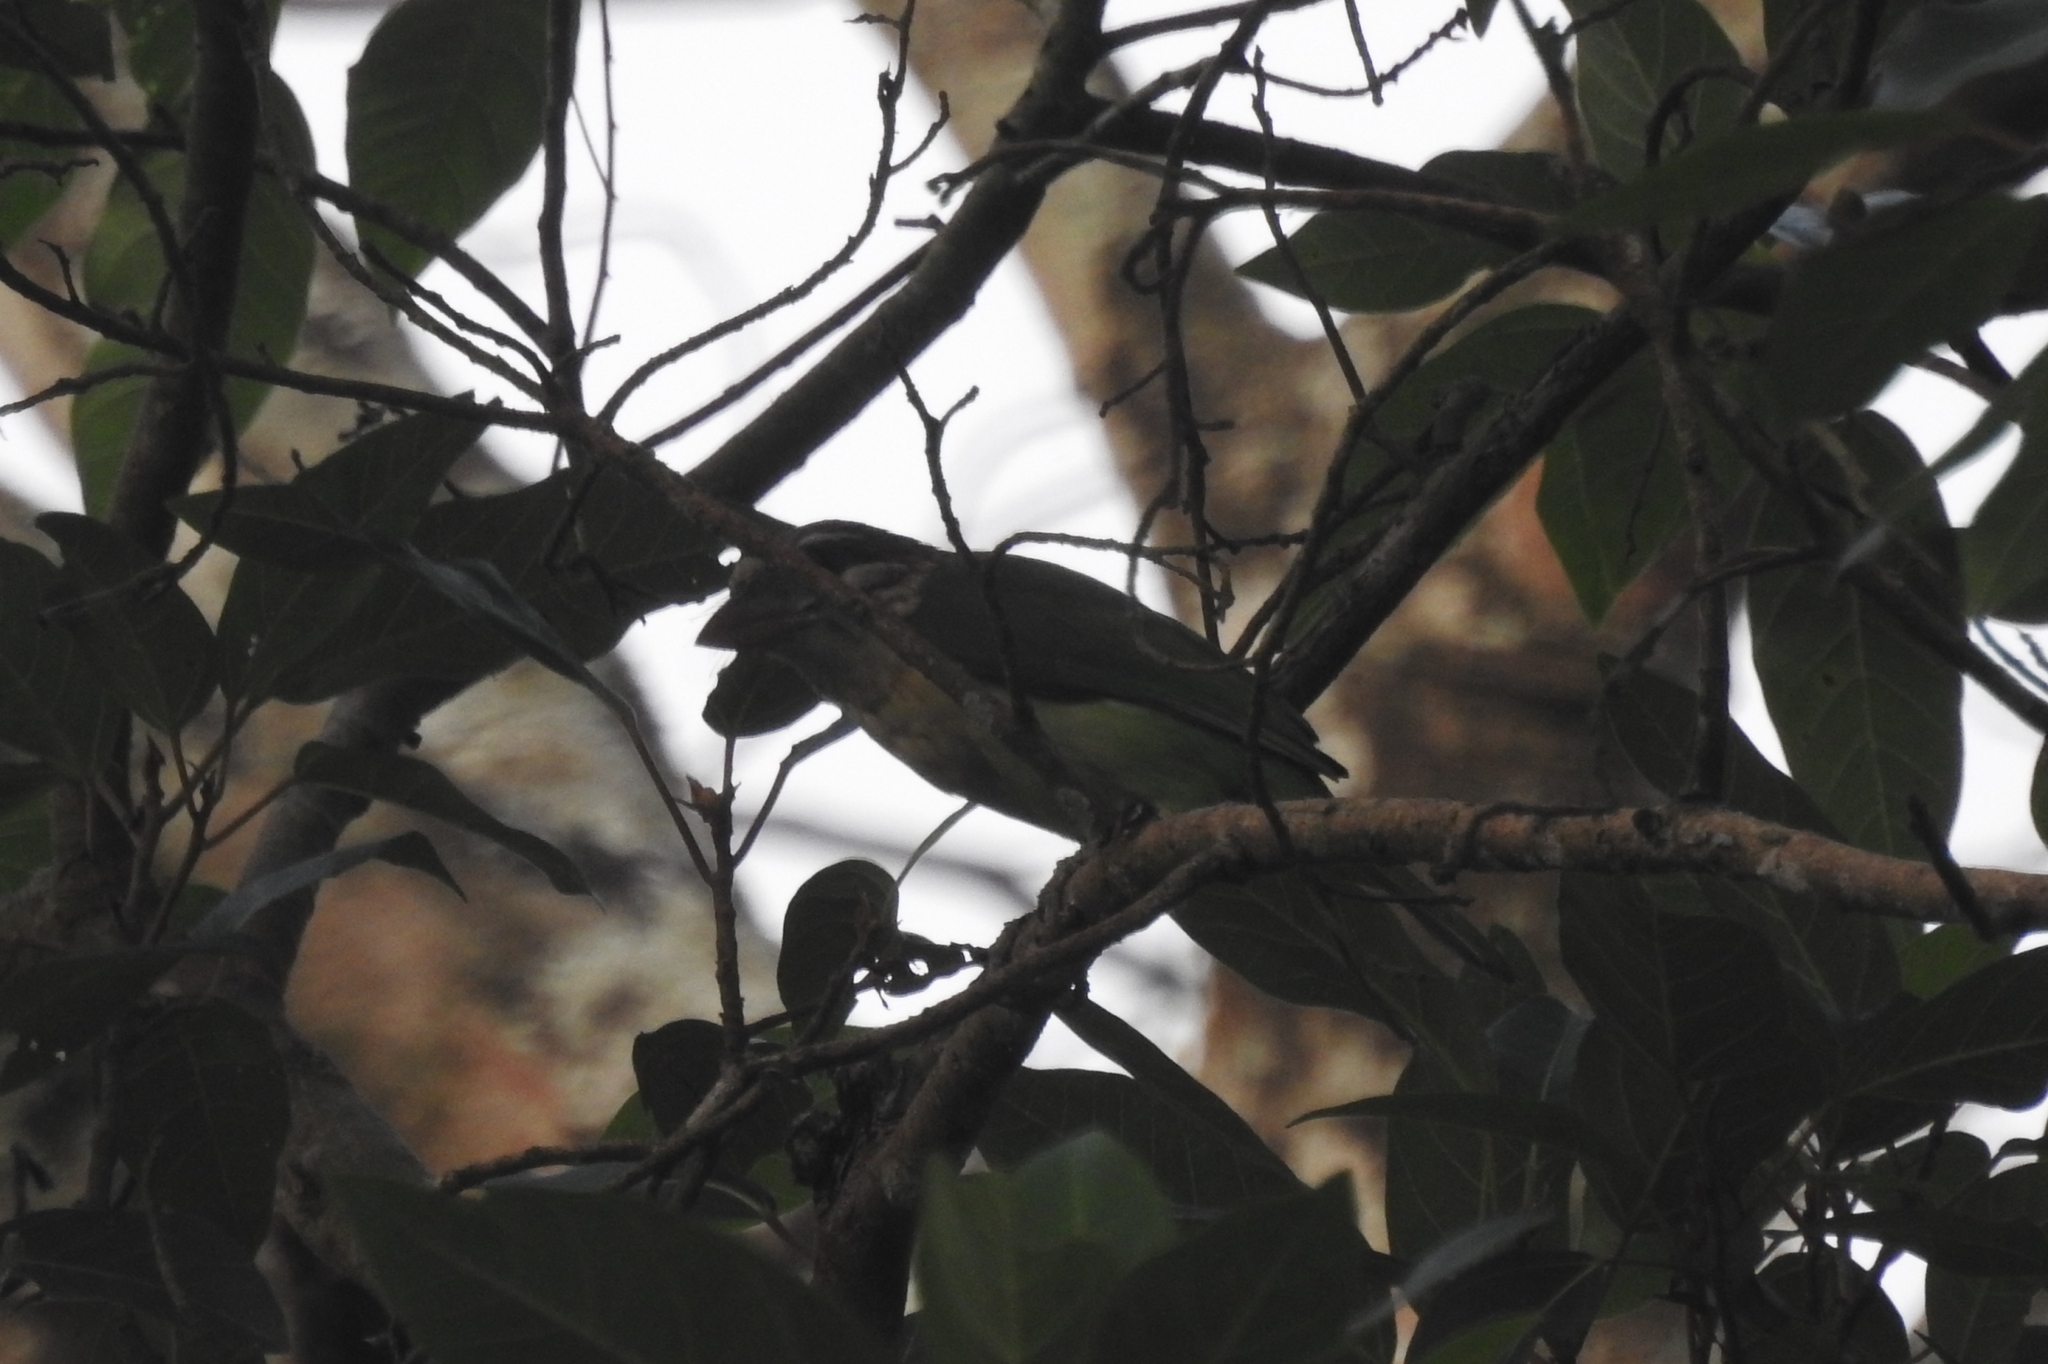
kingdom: Animalia
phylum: Chordata
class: Aves
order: Piciformes
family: Megalaimidae
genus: Psilopogon
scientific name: Psilopogon viridis
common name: White-cheeked barbet
